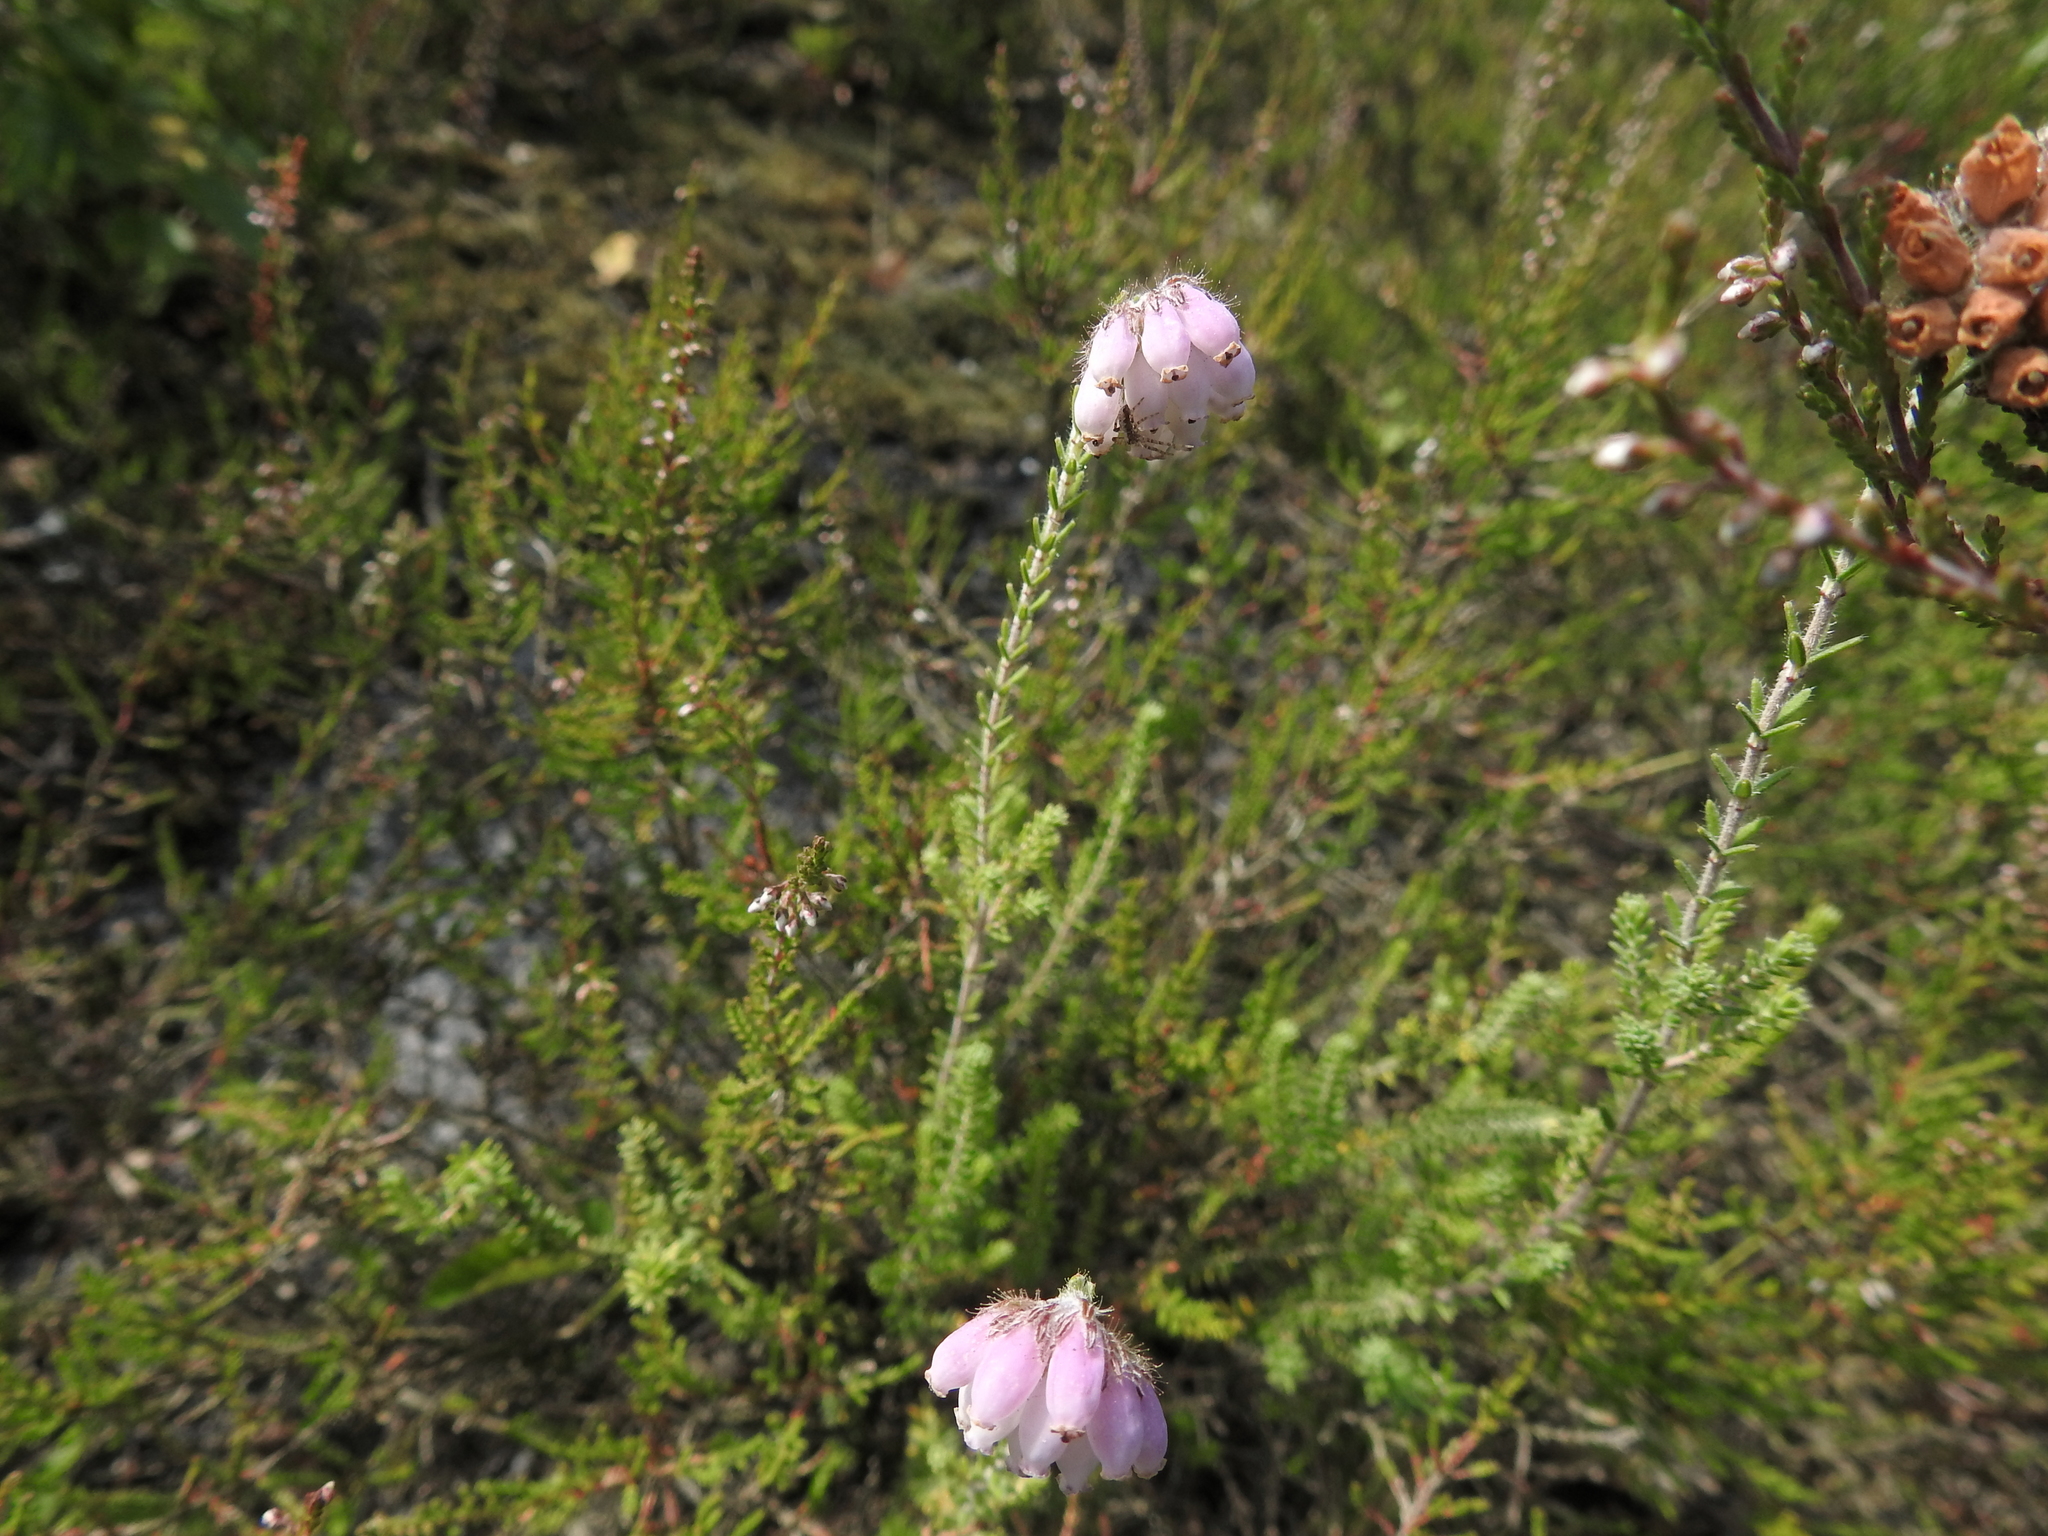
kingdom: Plantae
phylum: Tracheophyta
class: Magnoliopsida
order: Ericales
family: Ericaceae
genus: Erica
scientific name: Erica tetralix
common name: Cross-leaved heath
